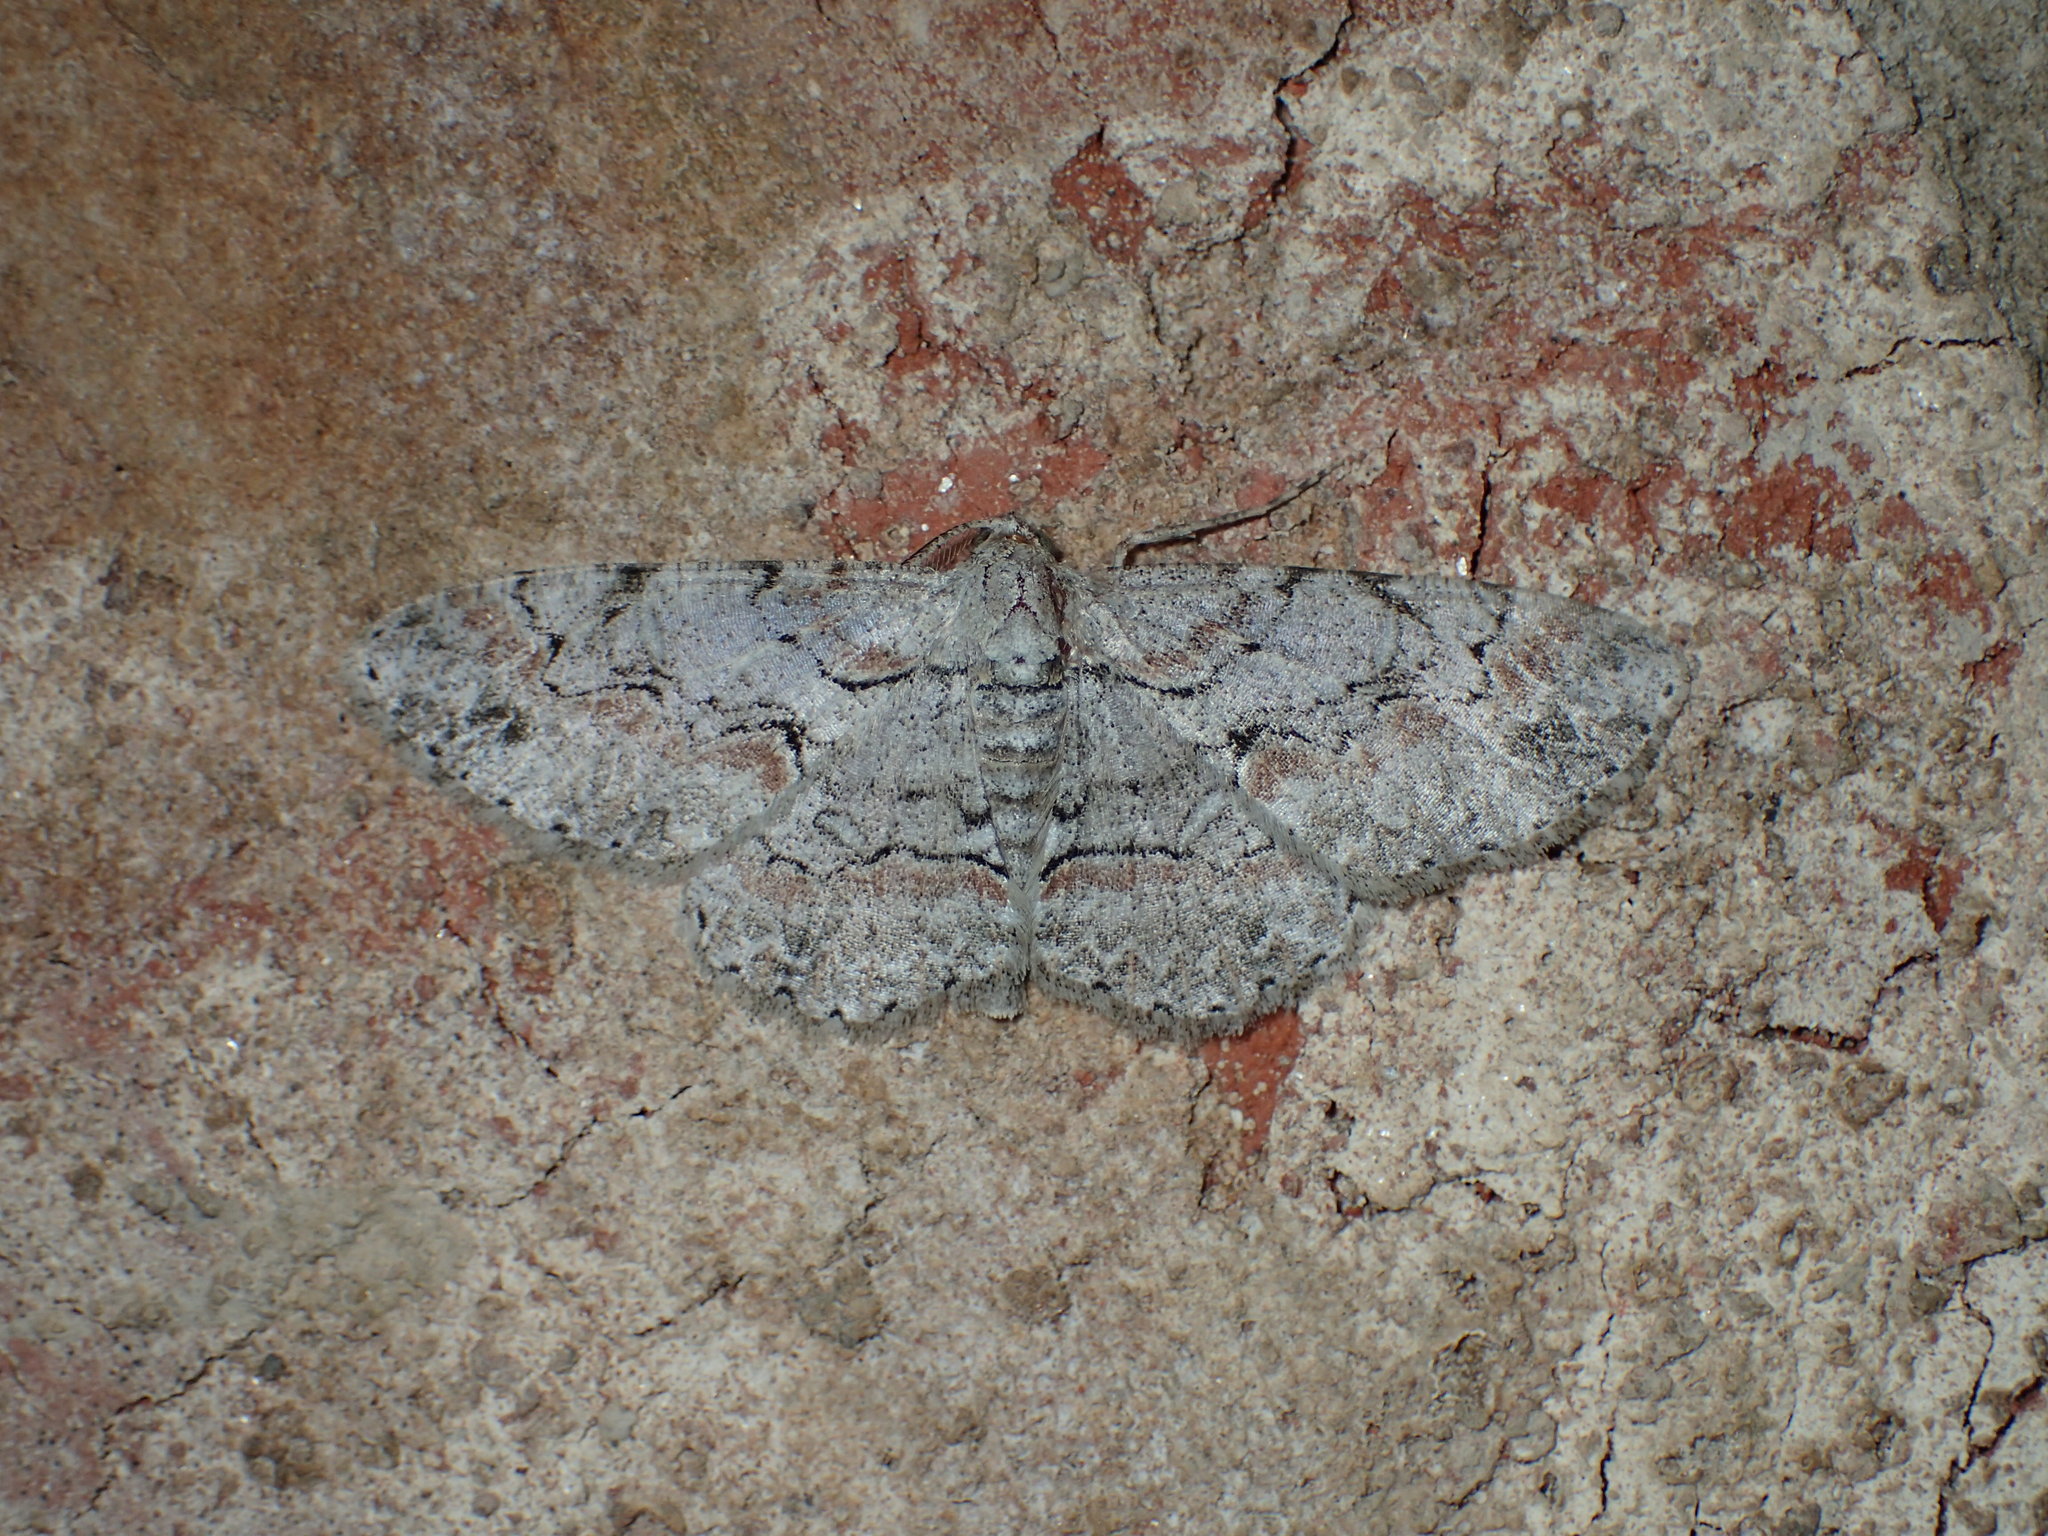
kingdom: Animalia
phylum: Arthropoda
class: Insecta
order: Lepidoptera
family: Geometridae
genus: Iridopsis
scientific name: Iridopsis defectaria
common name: Brown-shaded gray
